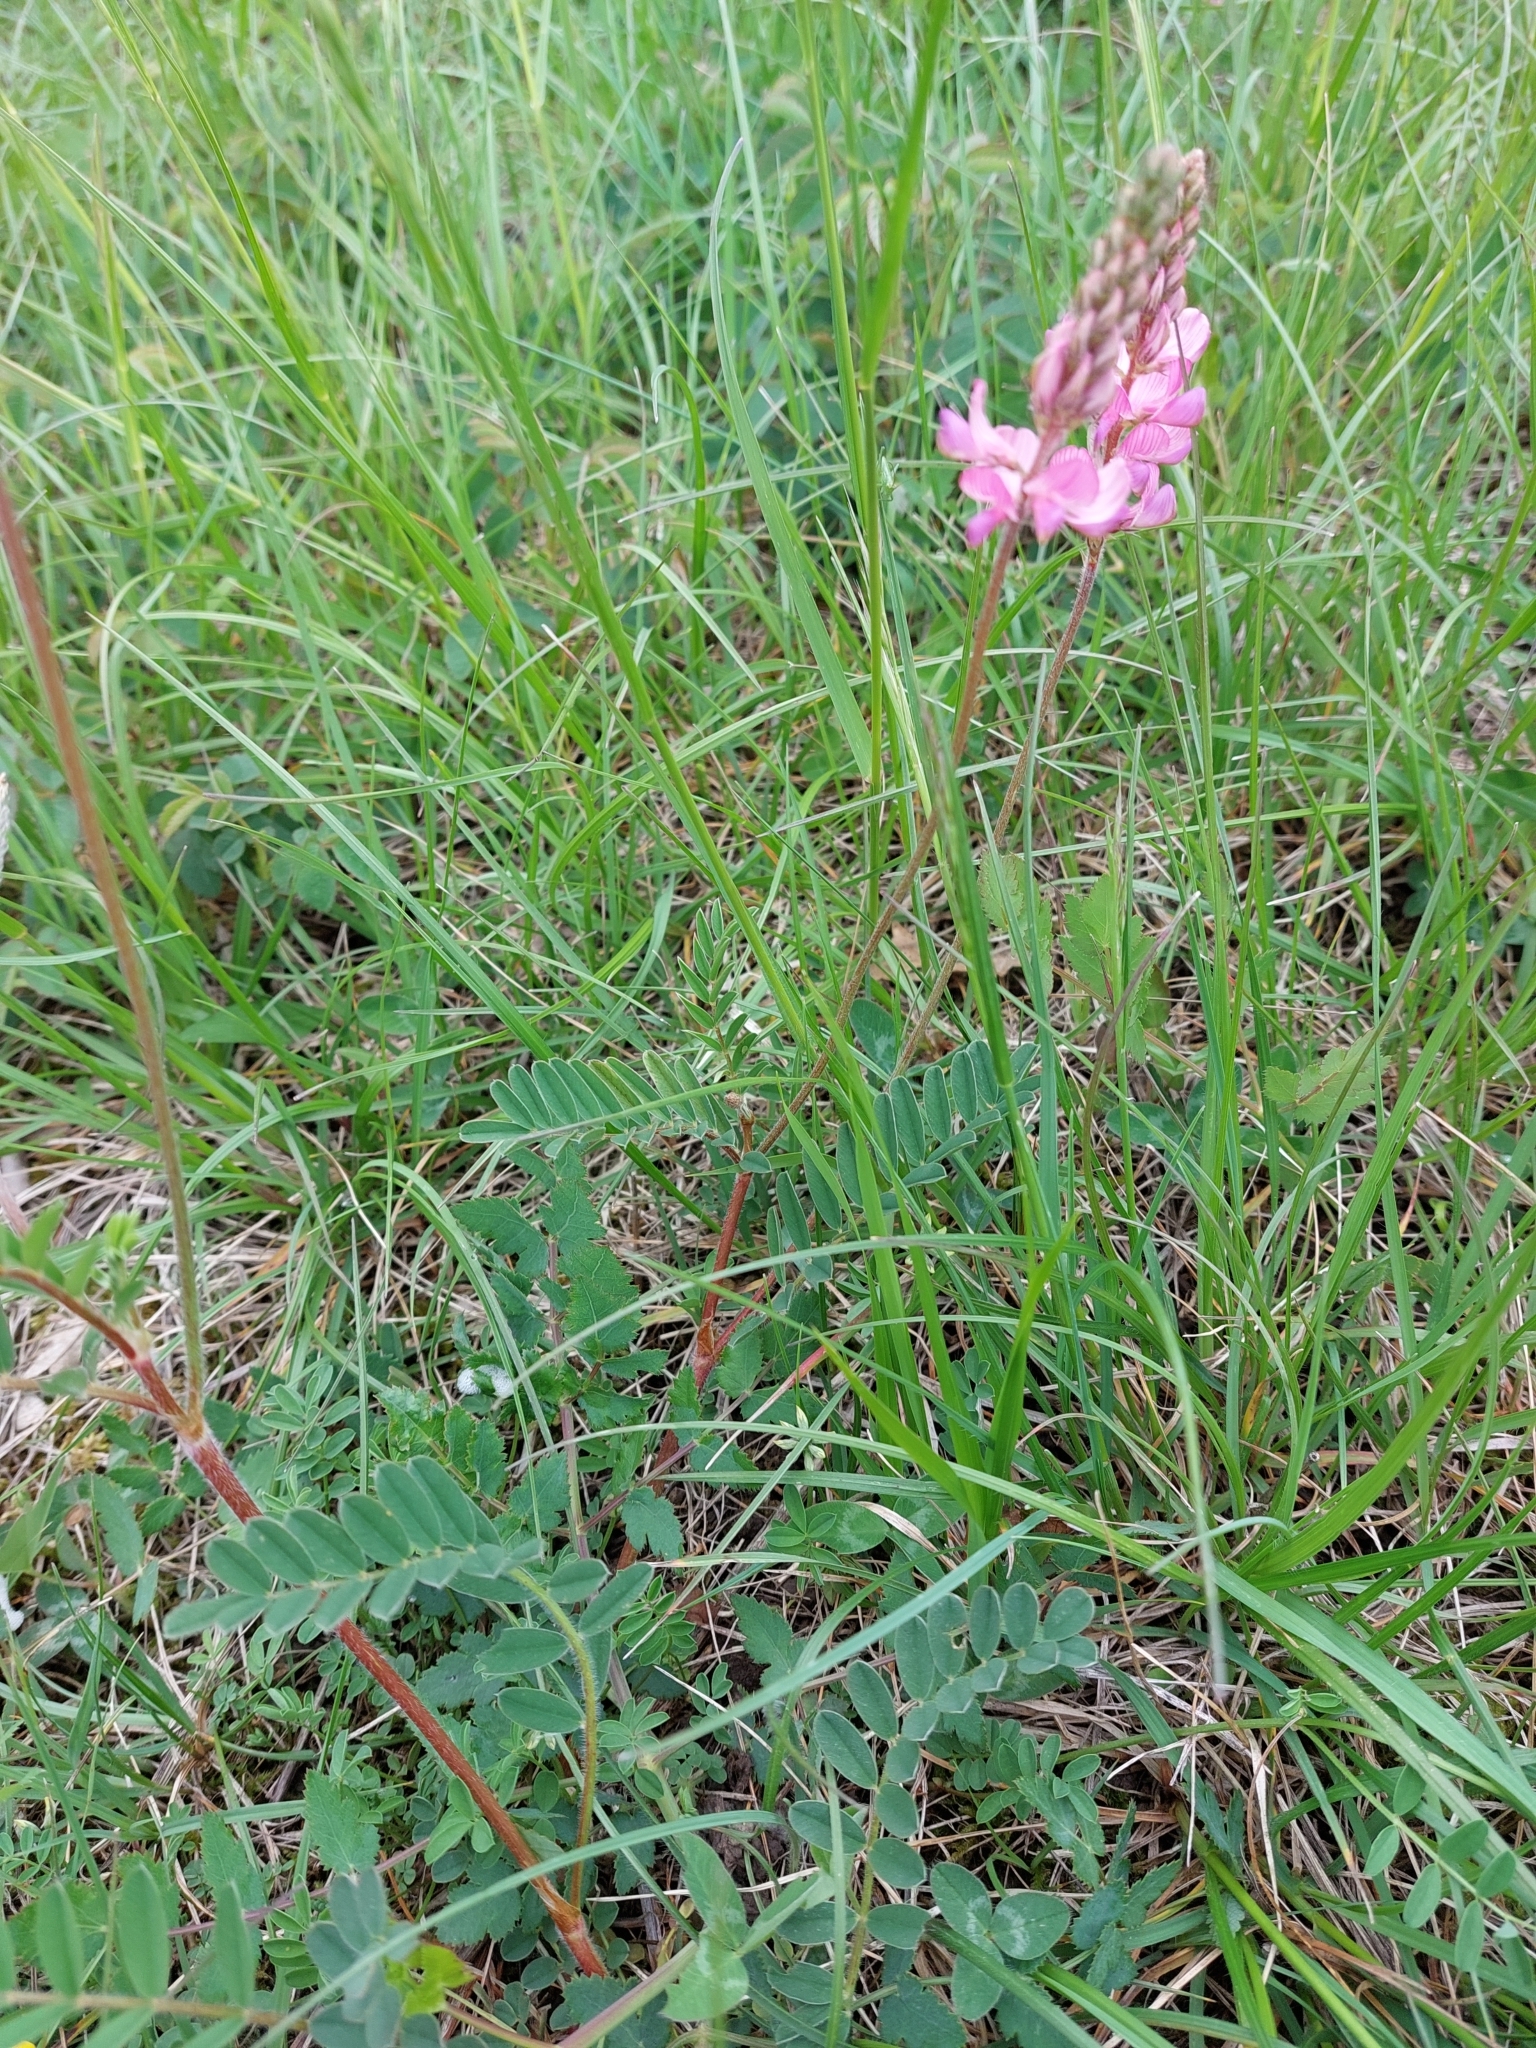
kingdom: Plantae
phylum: Tracheophyta
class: Magnoliopsida
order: Fabales
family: Fabaceae
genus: Onobrychis
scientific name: Onobrychis viciifolia
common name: Sainfoin
